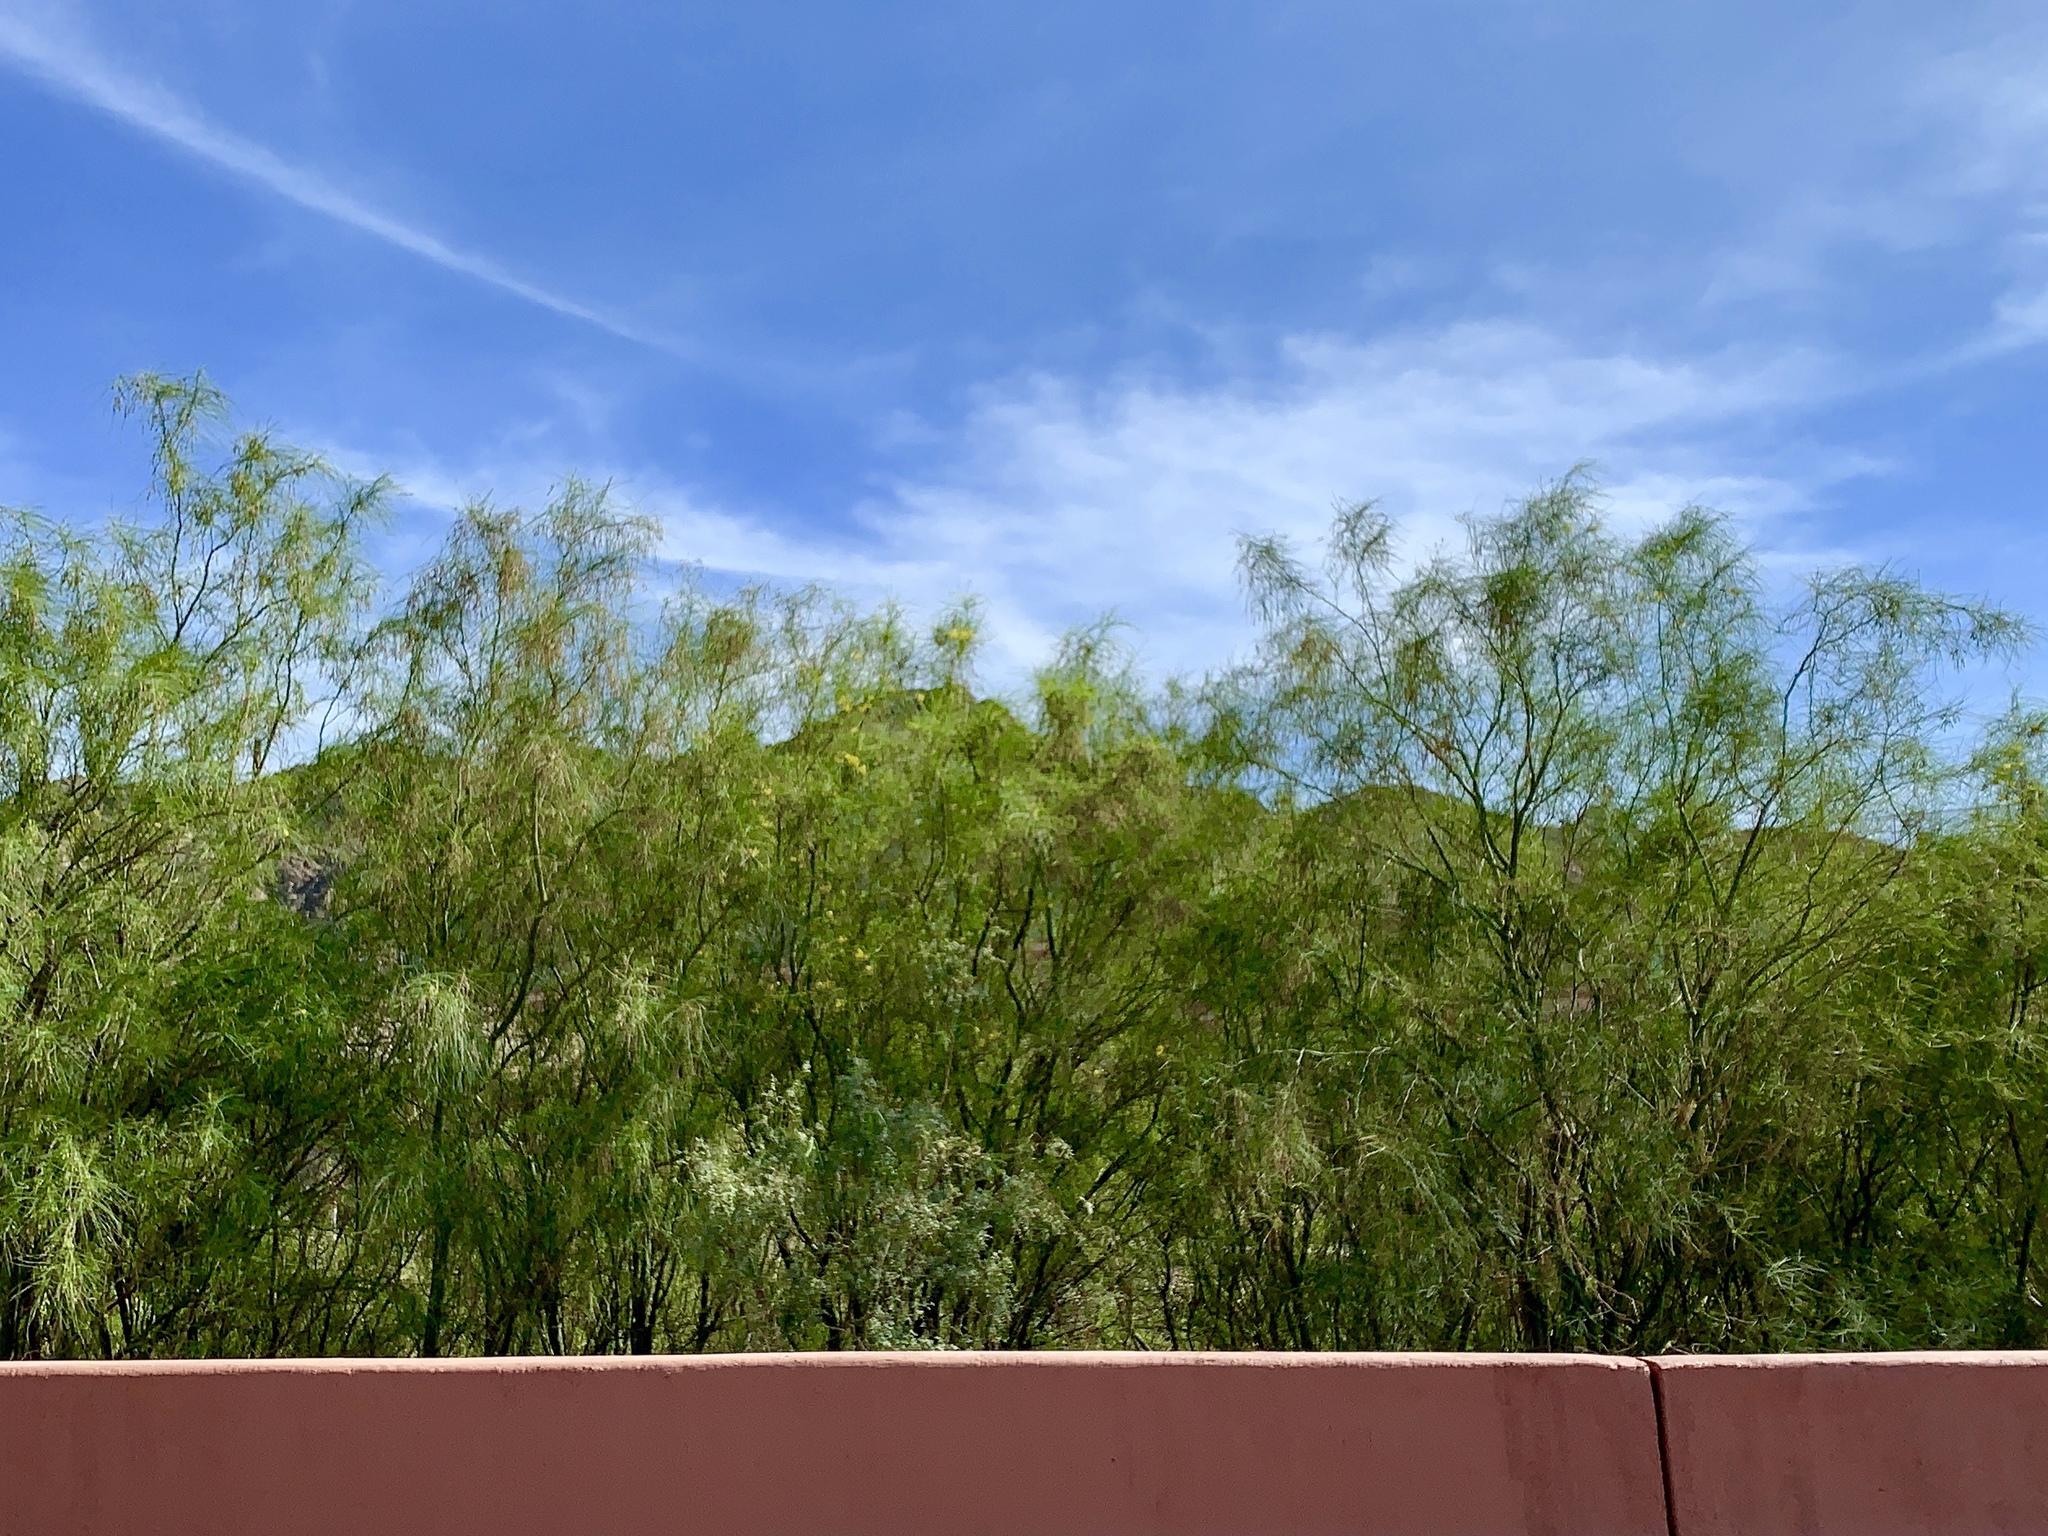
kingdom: Plantae
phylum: Tracheophyta
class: Magnoliopsida
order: Fabales
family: Fabaceae
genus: Parkinsonia
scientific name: Parkinsonia aculeata
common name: Jerusalem thorn
